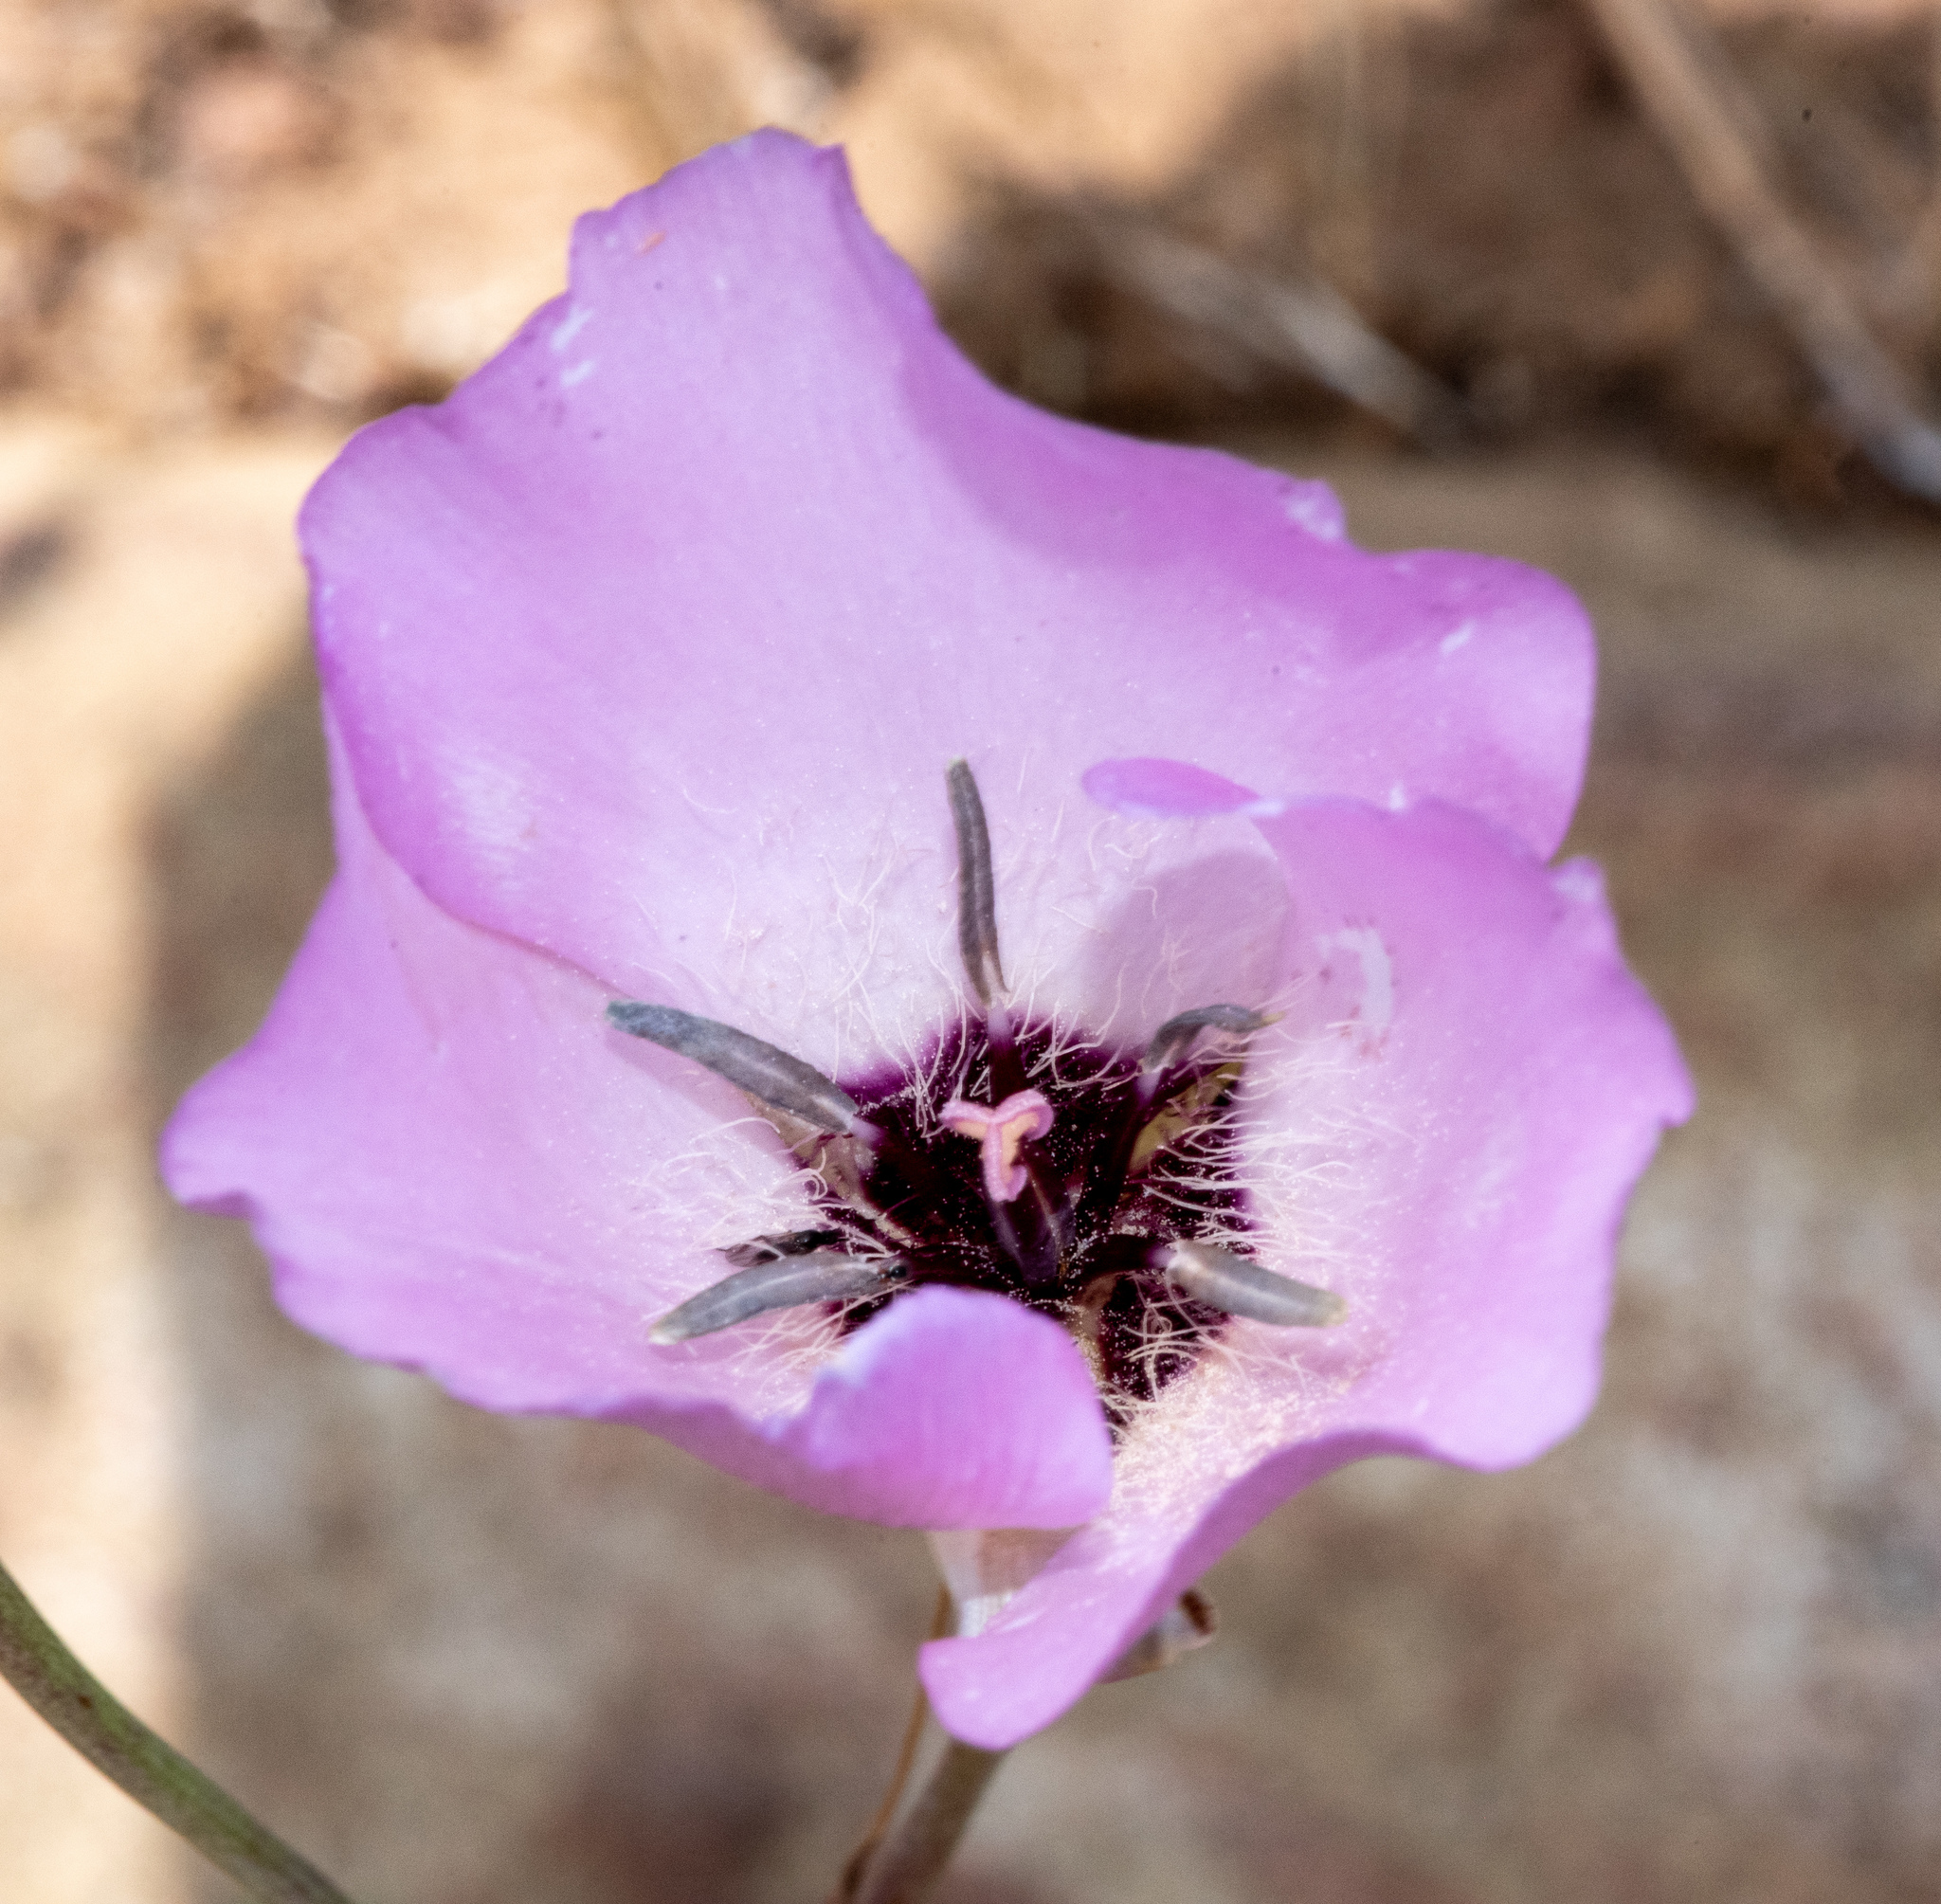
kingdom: Plantae
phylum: Tracheophyta
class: Liliopsida
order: Liliales
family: Liliaceae
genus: Calochortus
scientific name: Calochortus splendens
